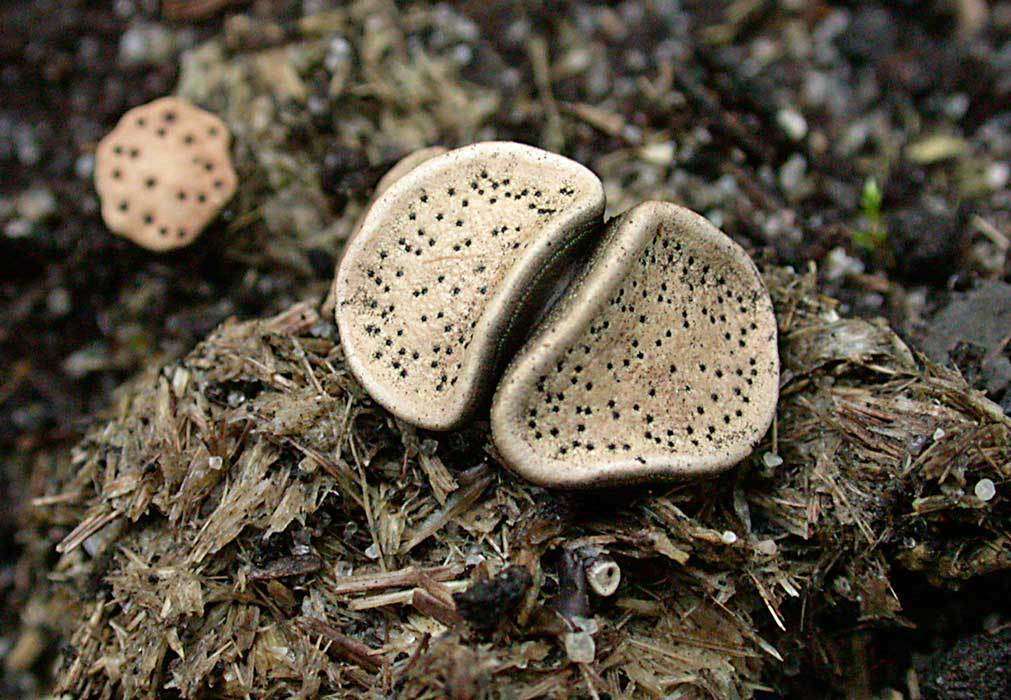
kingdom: Fungi
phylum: Ascomycota
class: Sordariomycetes
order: Xylariales
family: Xylariaceae
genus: Poronia
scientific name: Poronia erici
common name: Dung button
